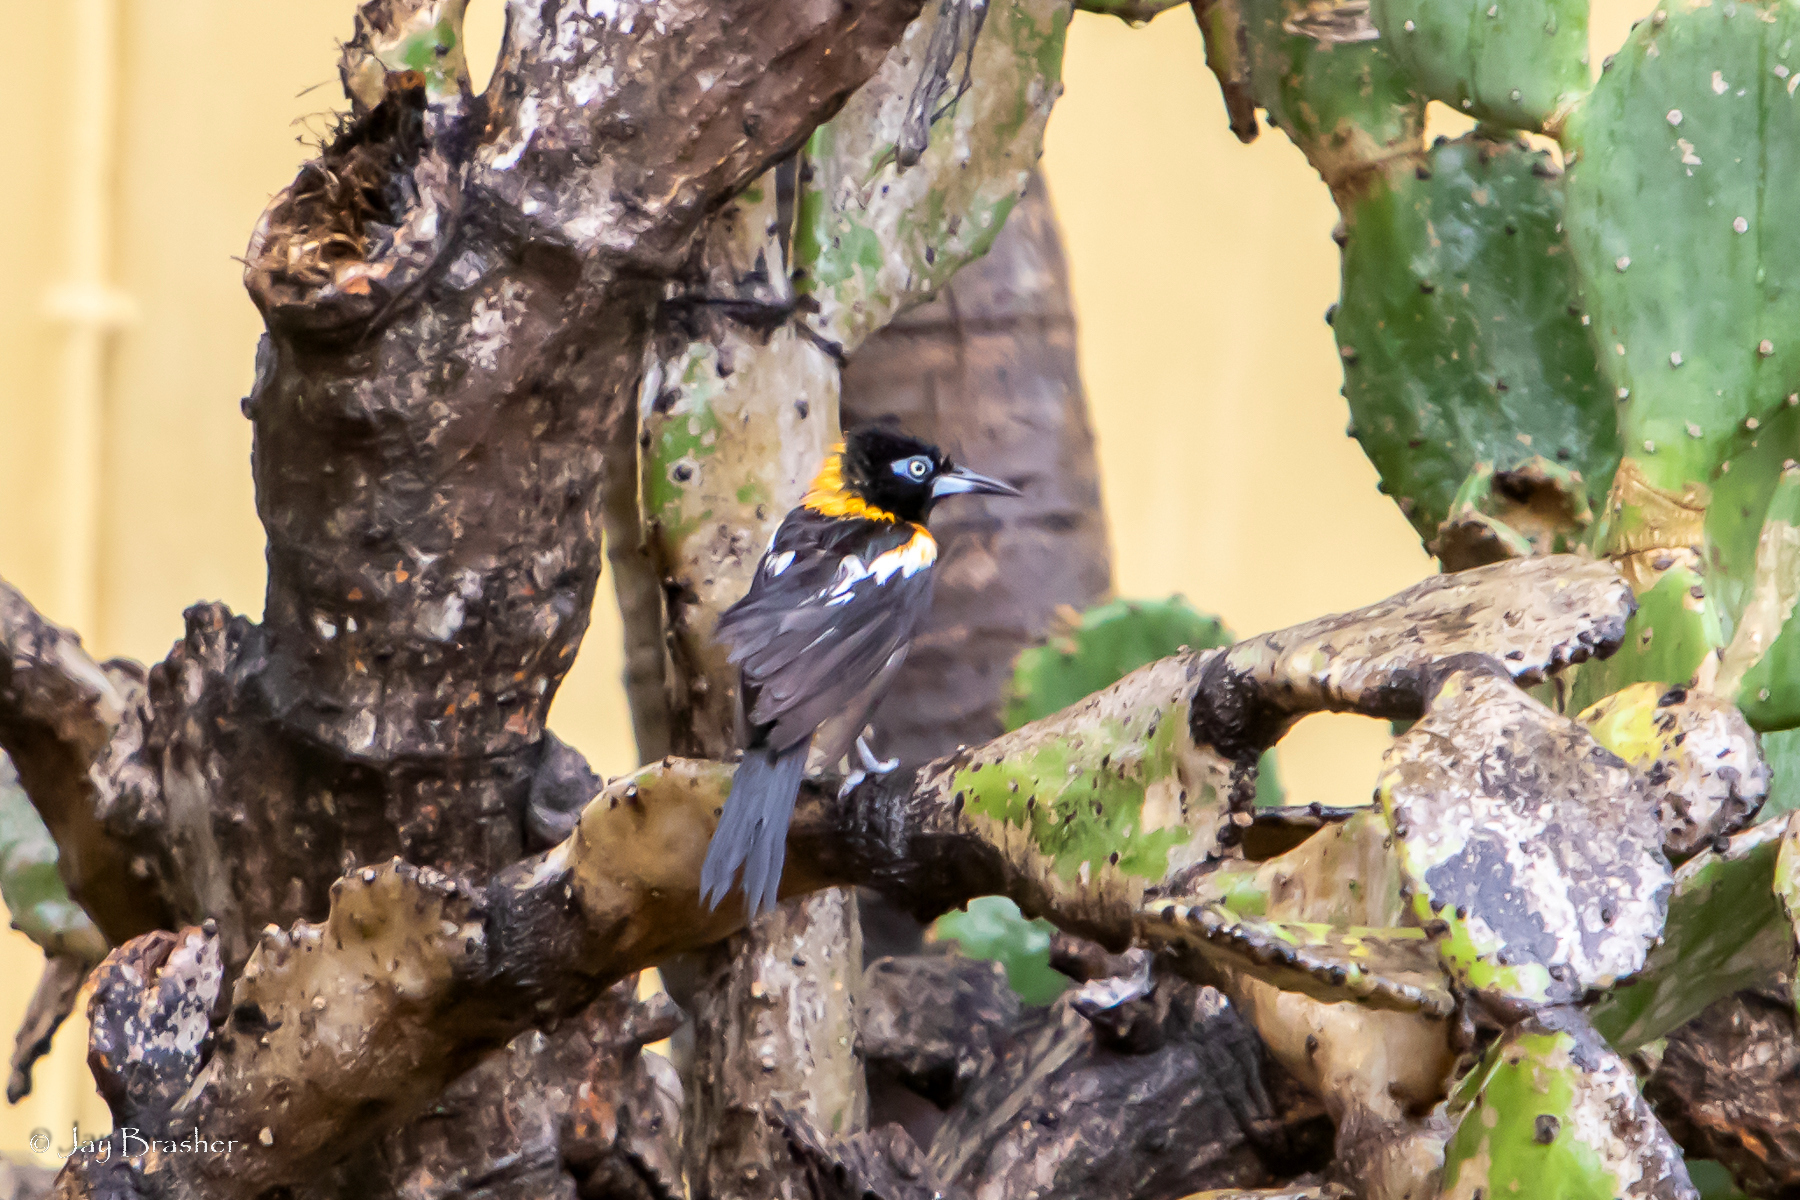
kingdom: Animalia
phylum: Chordata
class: Aves
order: Passeriformes
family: Icteridae
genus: Icterus
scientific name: Icterus icterus
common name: Venezuelan troupial
